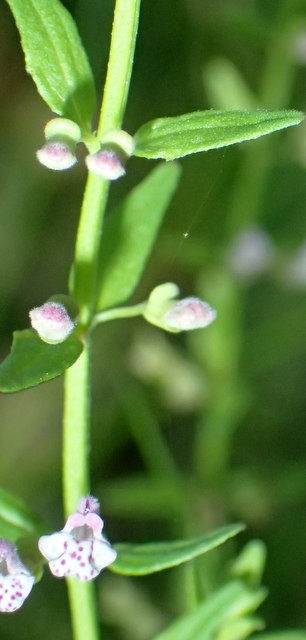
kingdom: Plantae
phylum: Tracheophyta
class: Magnoliopsida
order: Lamiales
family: Lamiaceae
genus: Scutellaria
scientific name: Scutellaria racemosa
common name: South american skullcap
